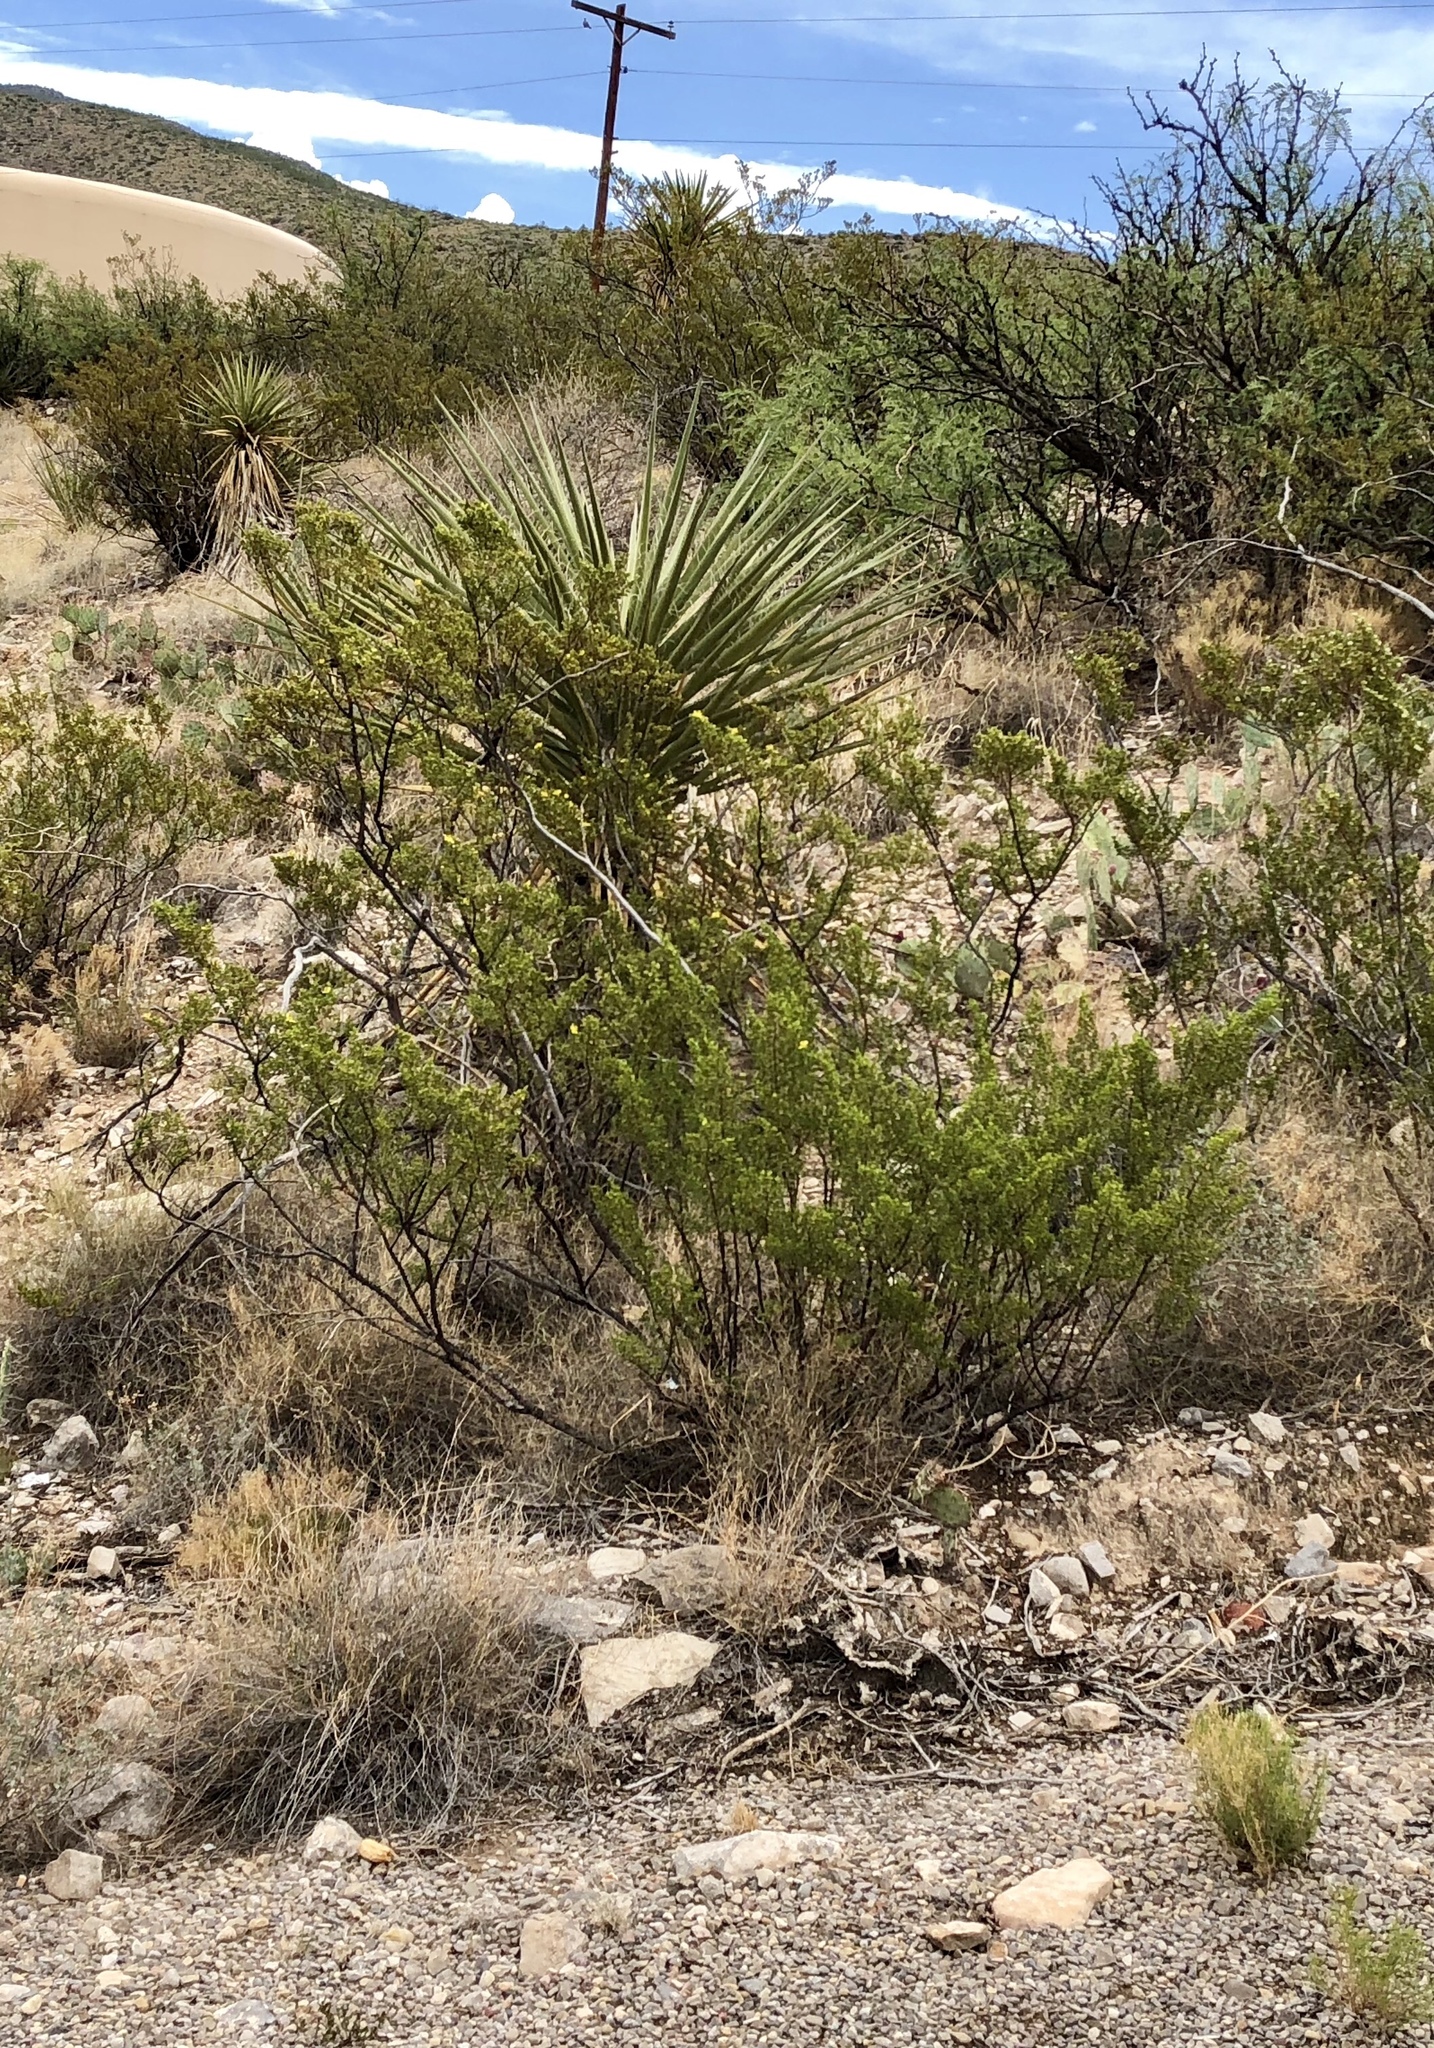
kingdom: Plantae
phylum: Tracheophyta
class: Magnoliopsida
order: Zygophyllales
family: Zygophyllaceae
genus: Larrea
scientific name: Larrea tridentata
